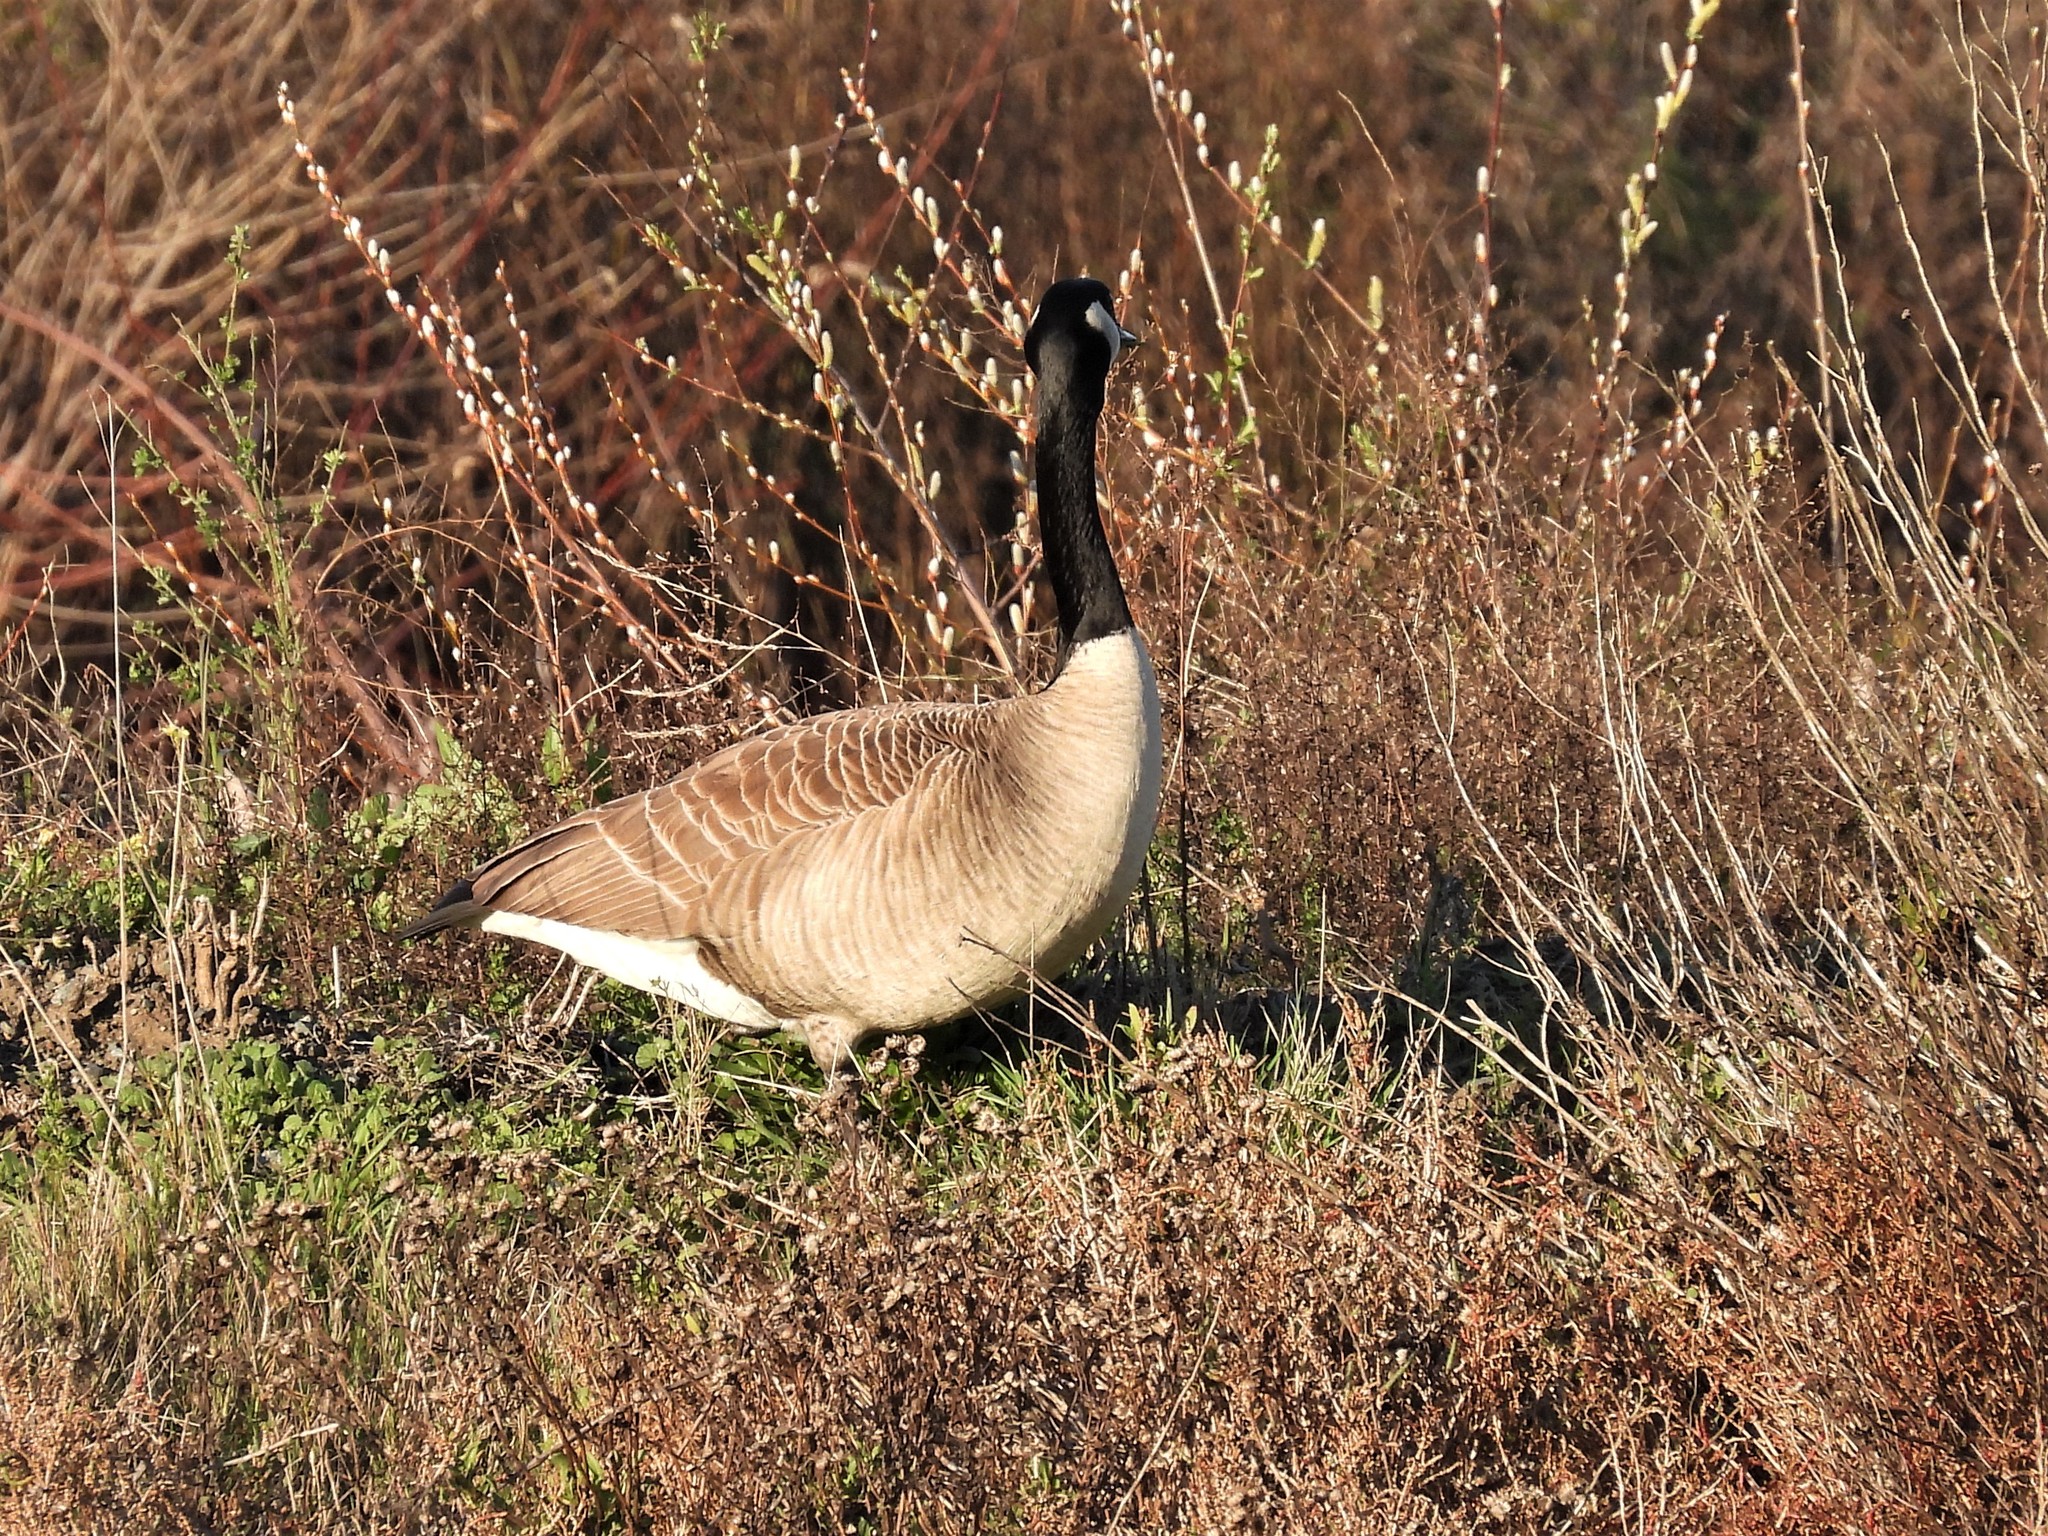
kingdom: Animalia
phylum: Chordata
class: Aves
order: Anseriformes
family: Anatidae
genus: Branta
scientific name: Branta canadensis
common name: Canada goose
